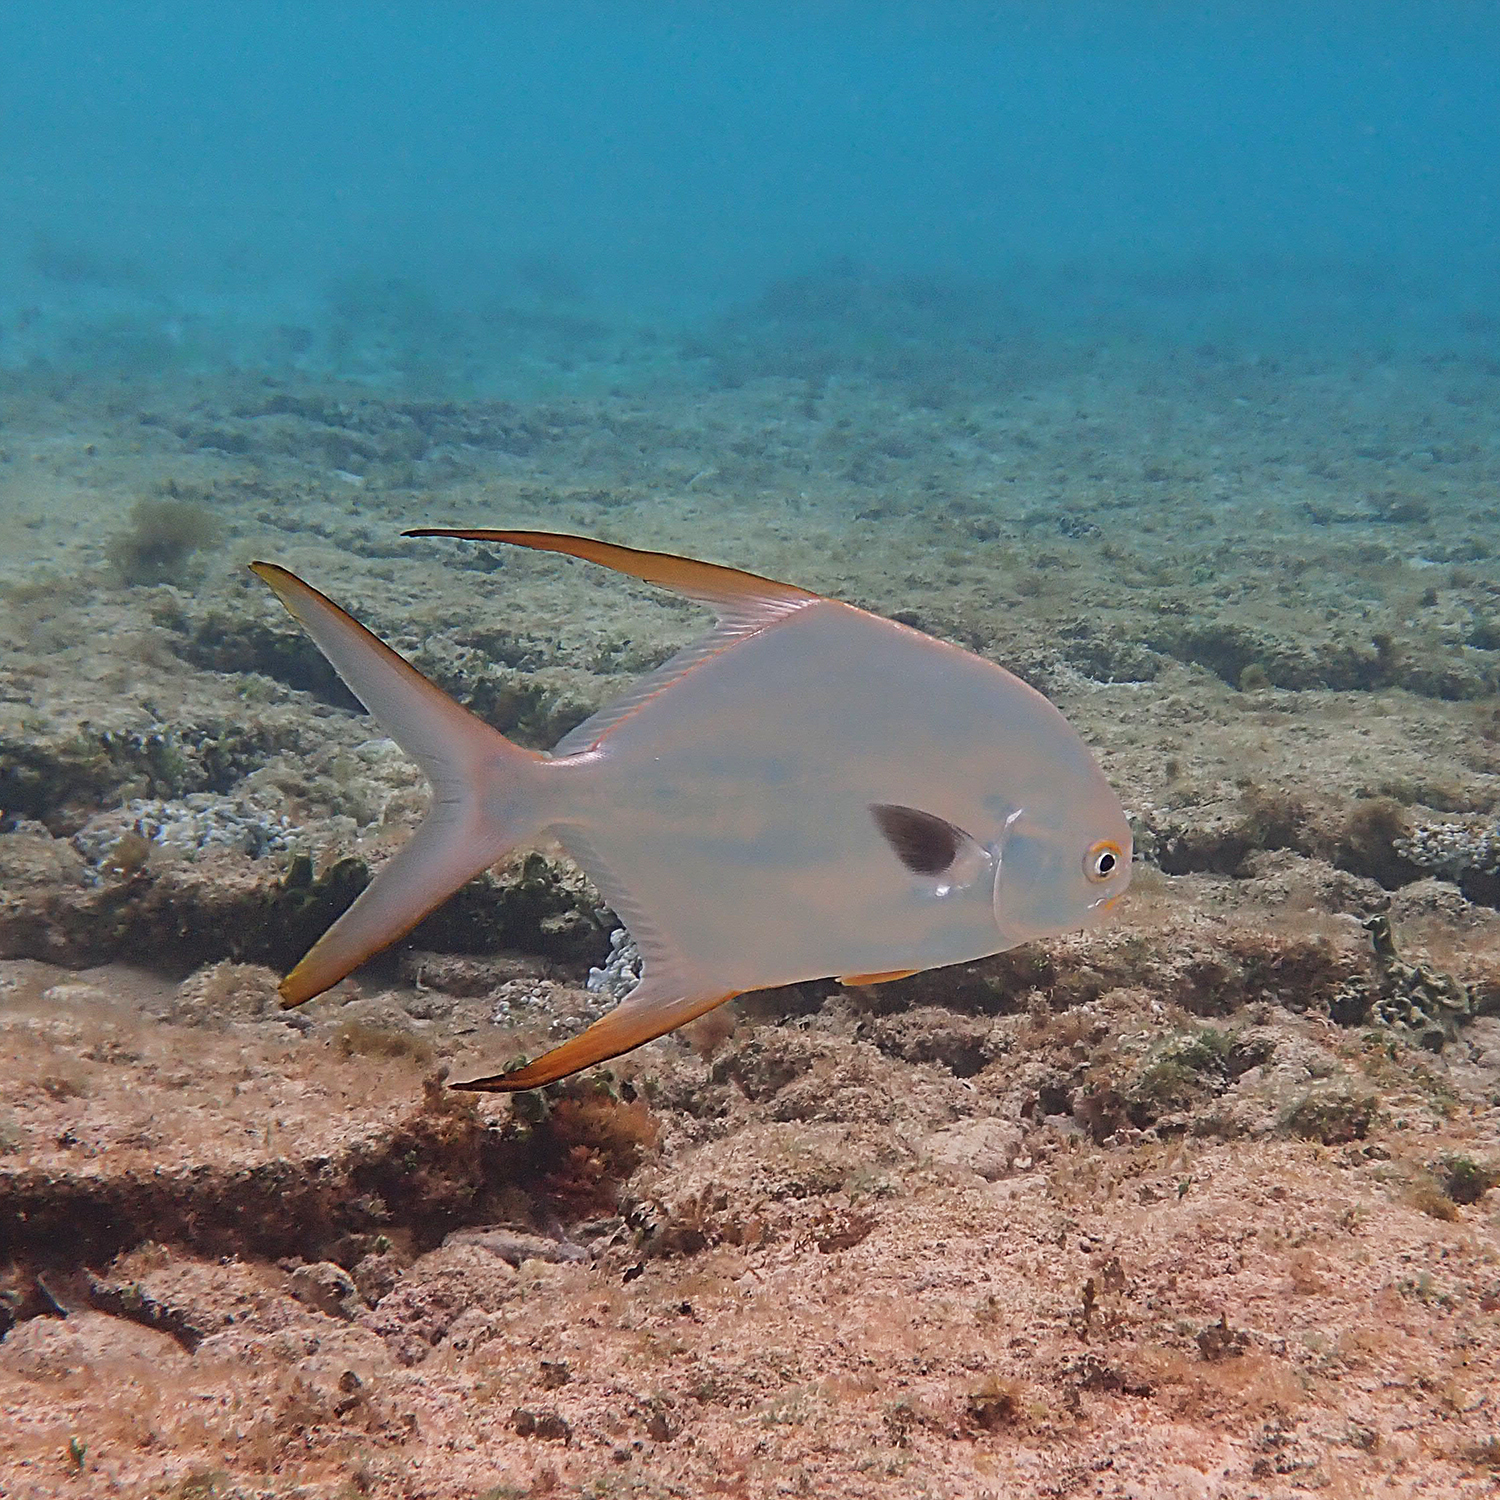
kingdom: Animalia
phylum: Chordata
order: Perciformes
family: Carangidae
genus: Trachinotus
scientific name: Trachinotus blochii
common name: Snubnose pompano
